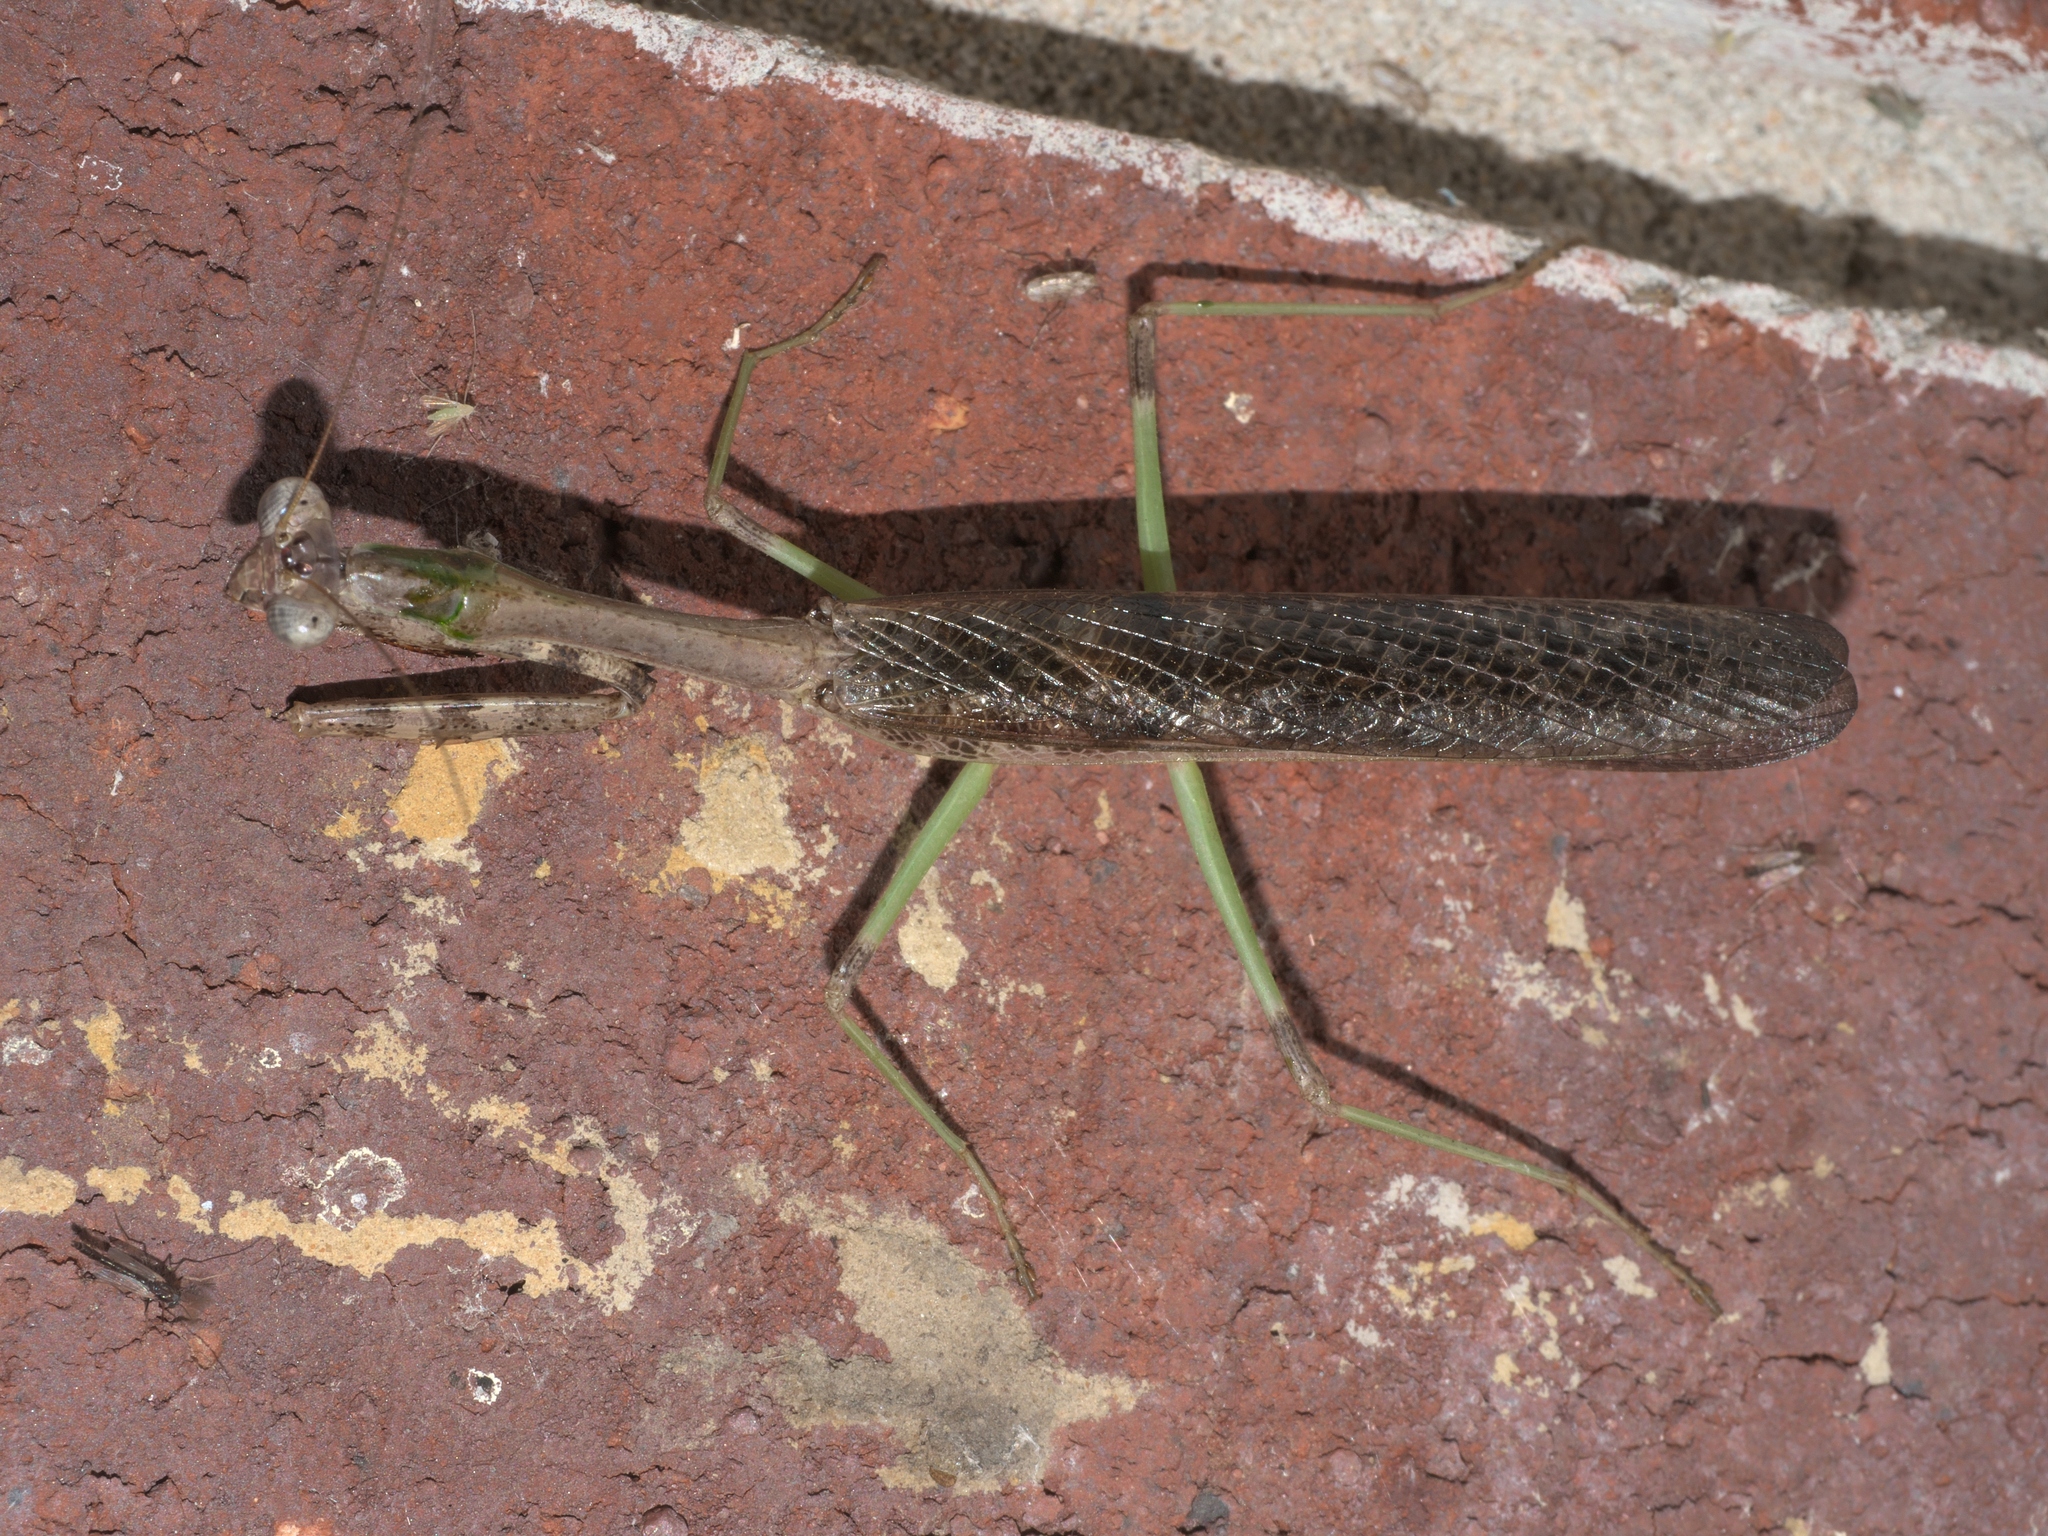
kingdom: Animalia
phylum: Arthropoda
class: Insecta
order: Mantodea
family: Mantidae
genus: Stagmomantis
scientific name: Stagmomantis carolina
